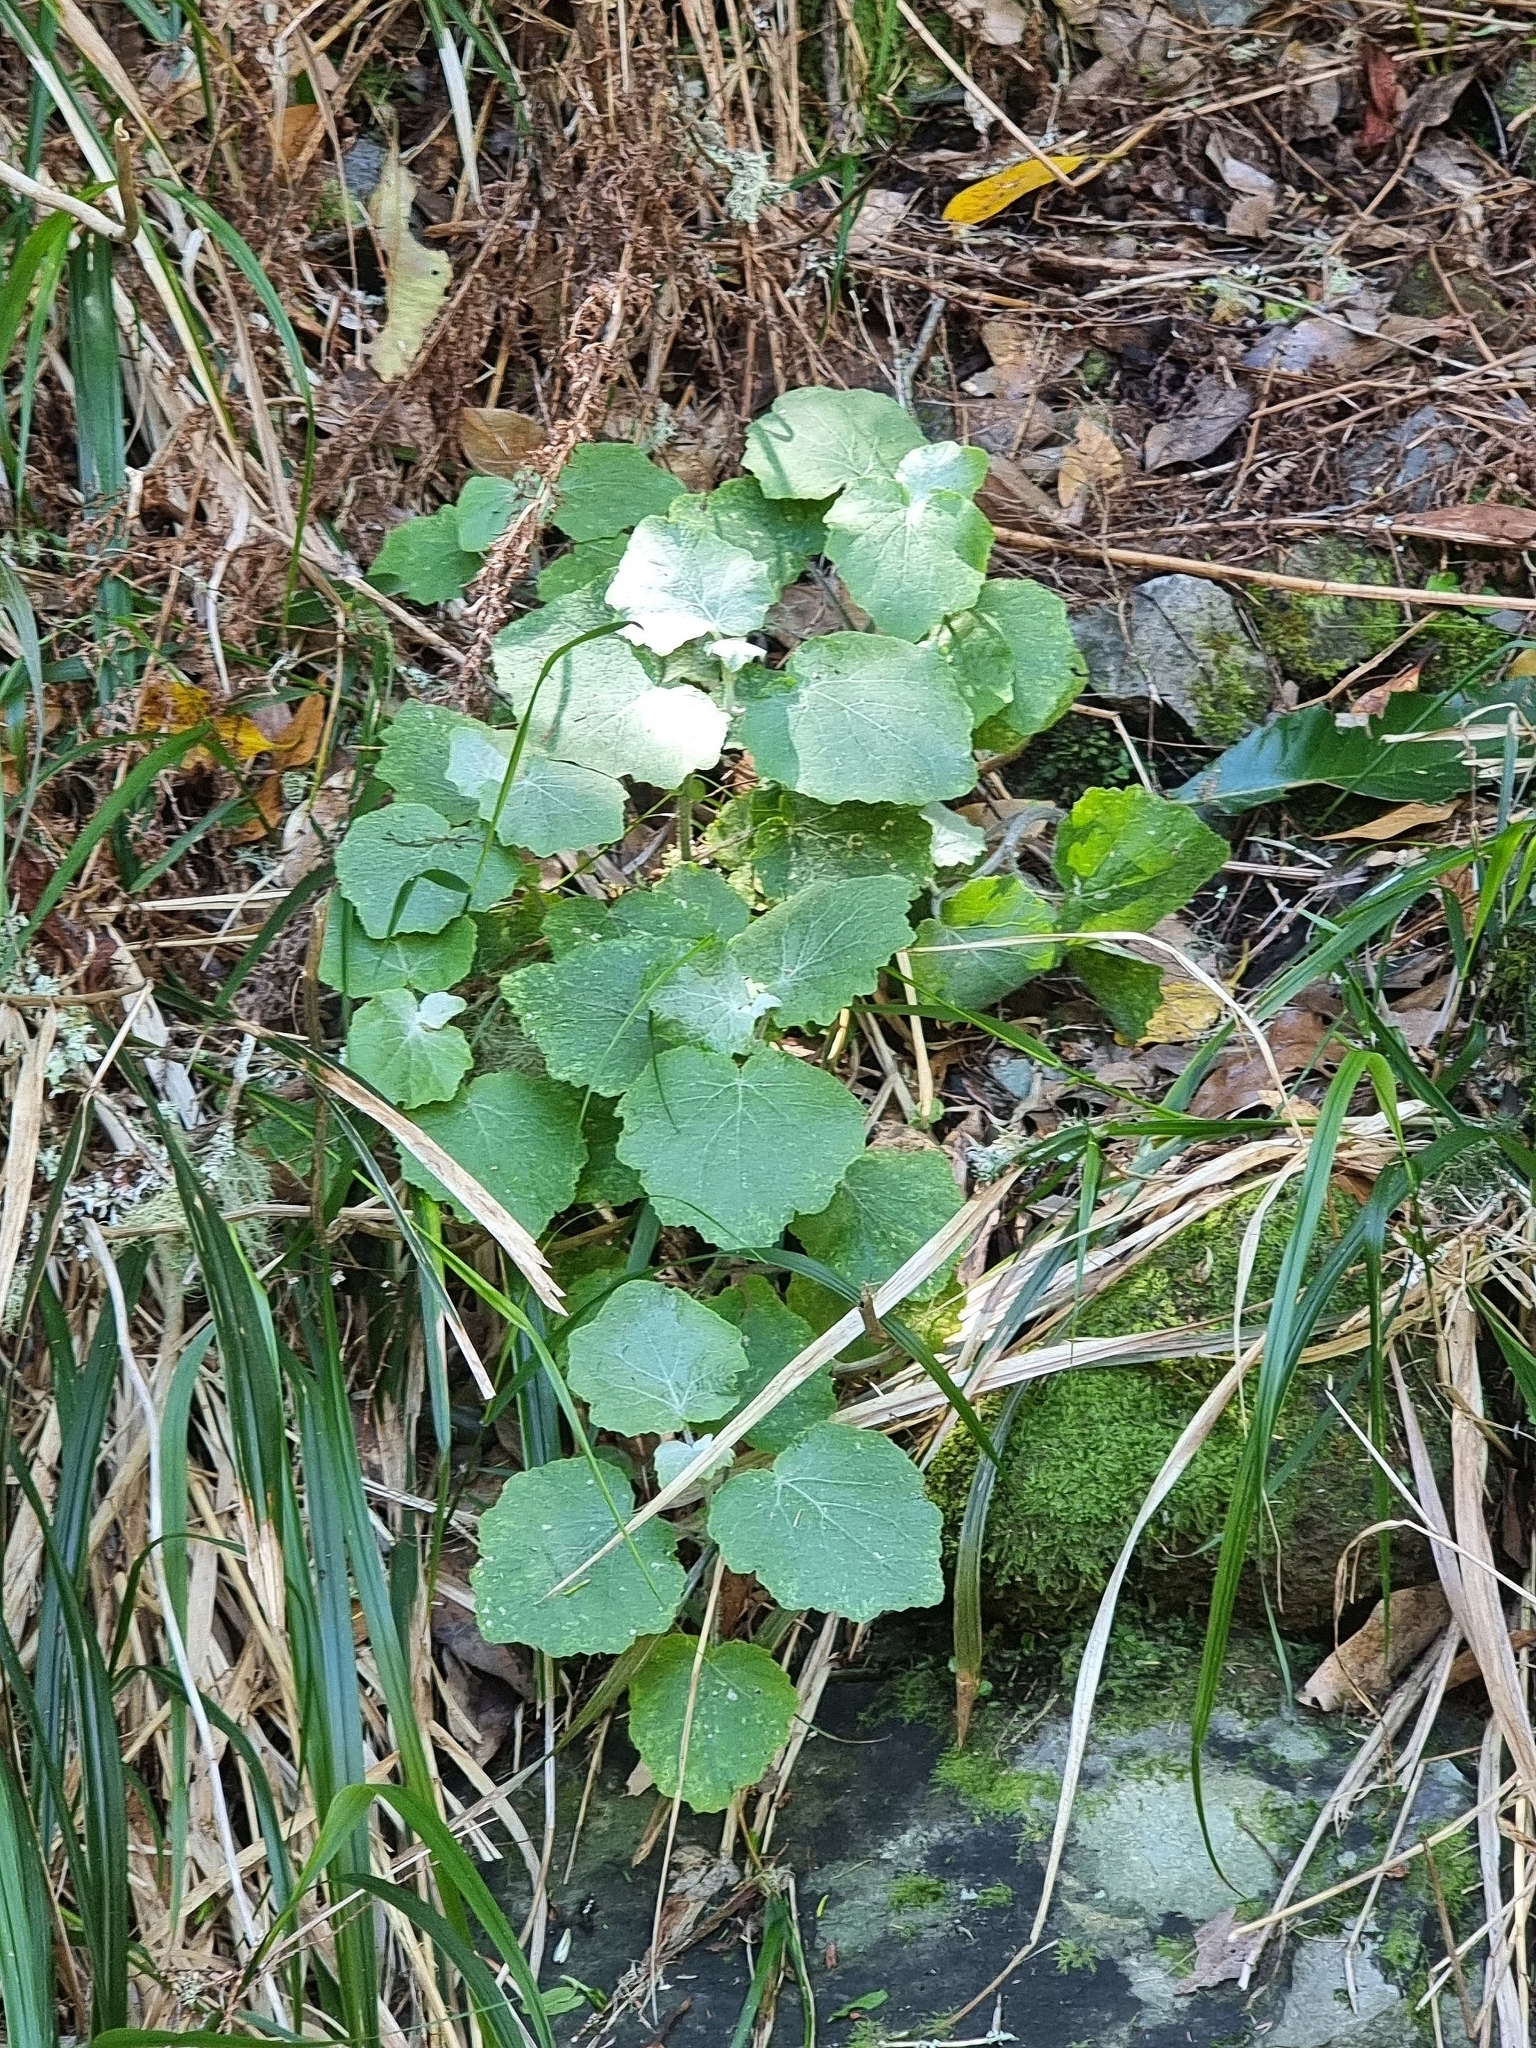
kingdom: Plantae
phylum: Tracheophyta
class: Magnoliopsida
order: Asterales
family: Asteraceae
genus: Pericallis
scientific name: Pericallis aurita
